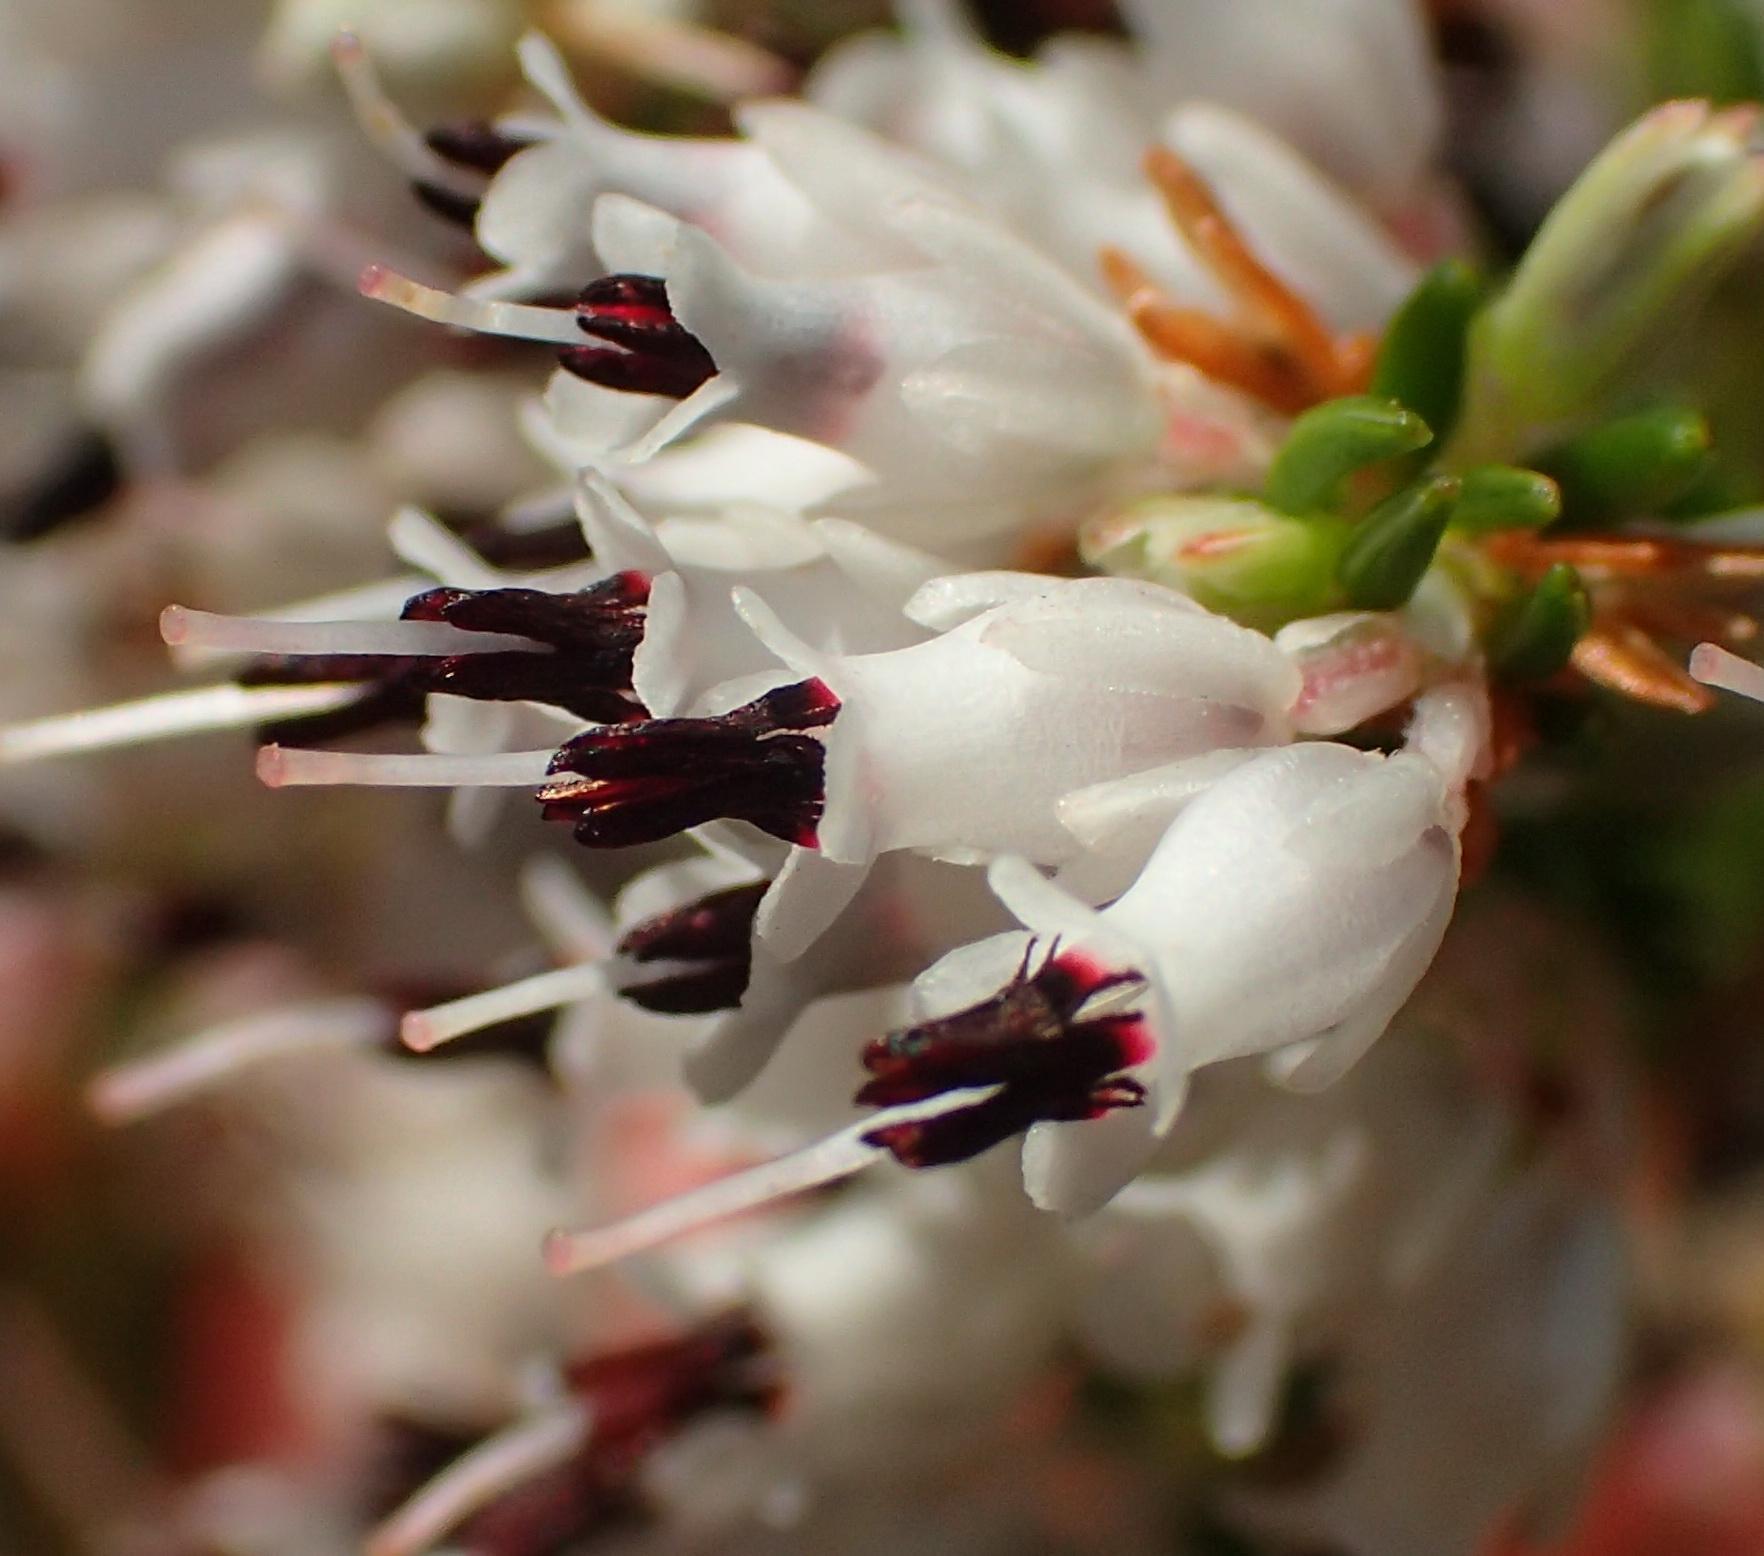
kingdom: Plantae
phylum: Tracheophyta
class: Magnoliopsida
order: Ericales
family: Ericaceae
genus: Erica
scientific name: Erica fuscescens
